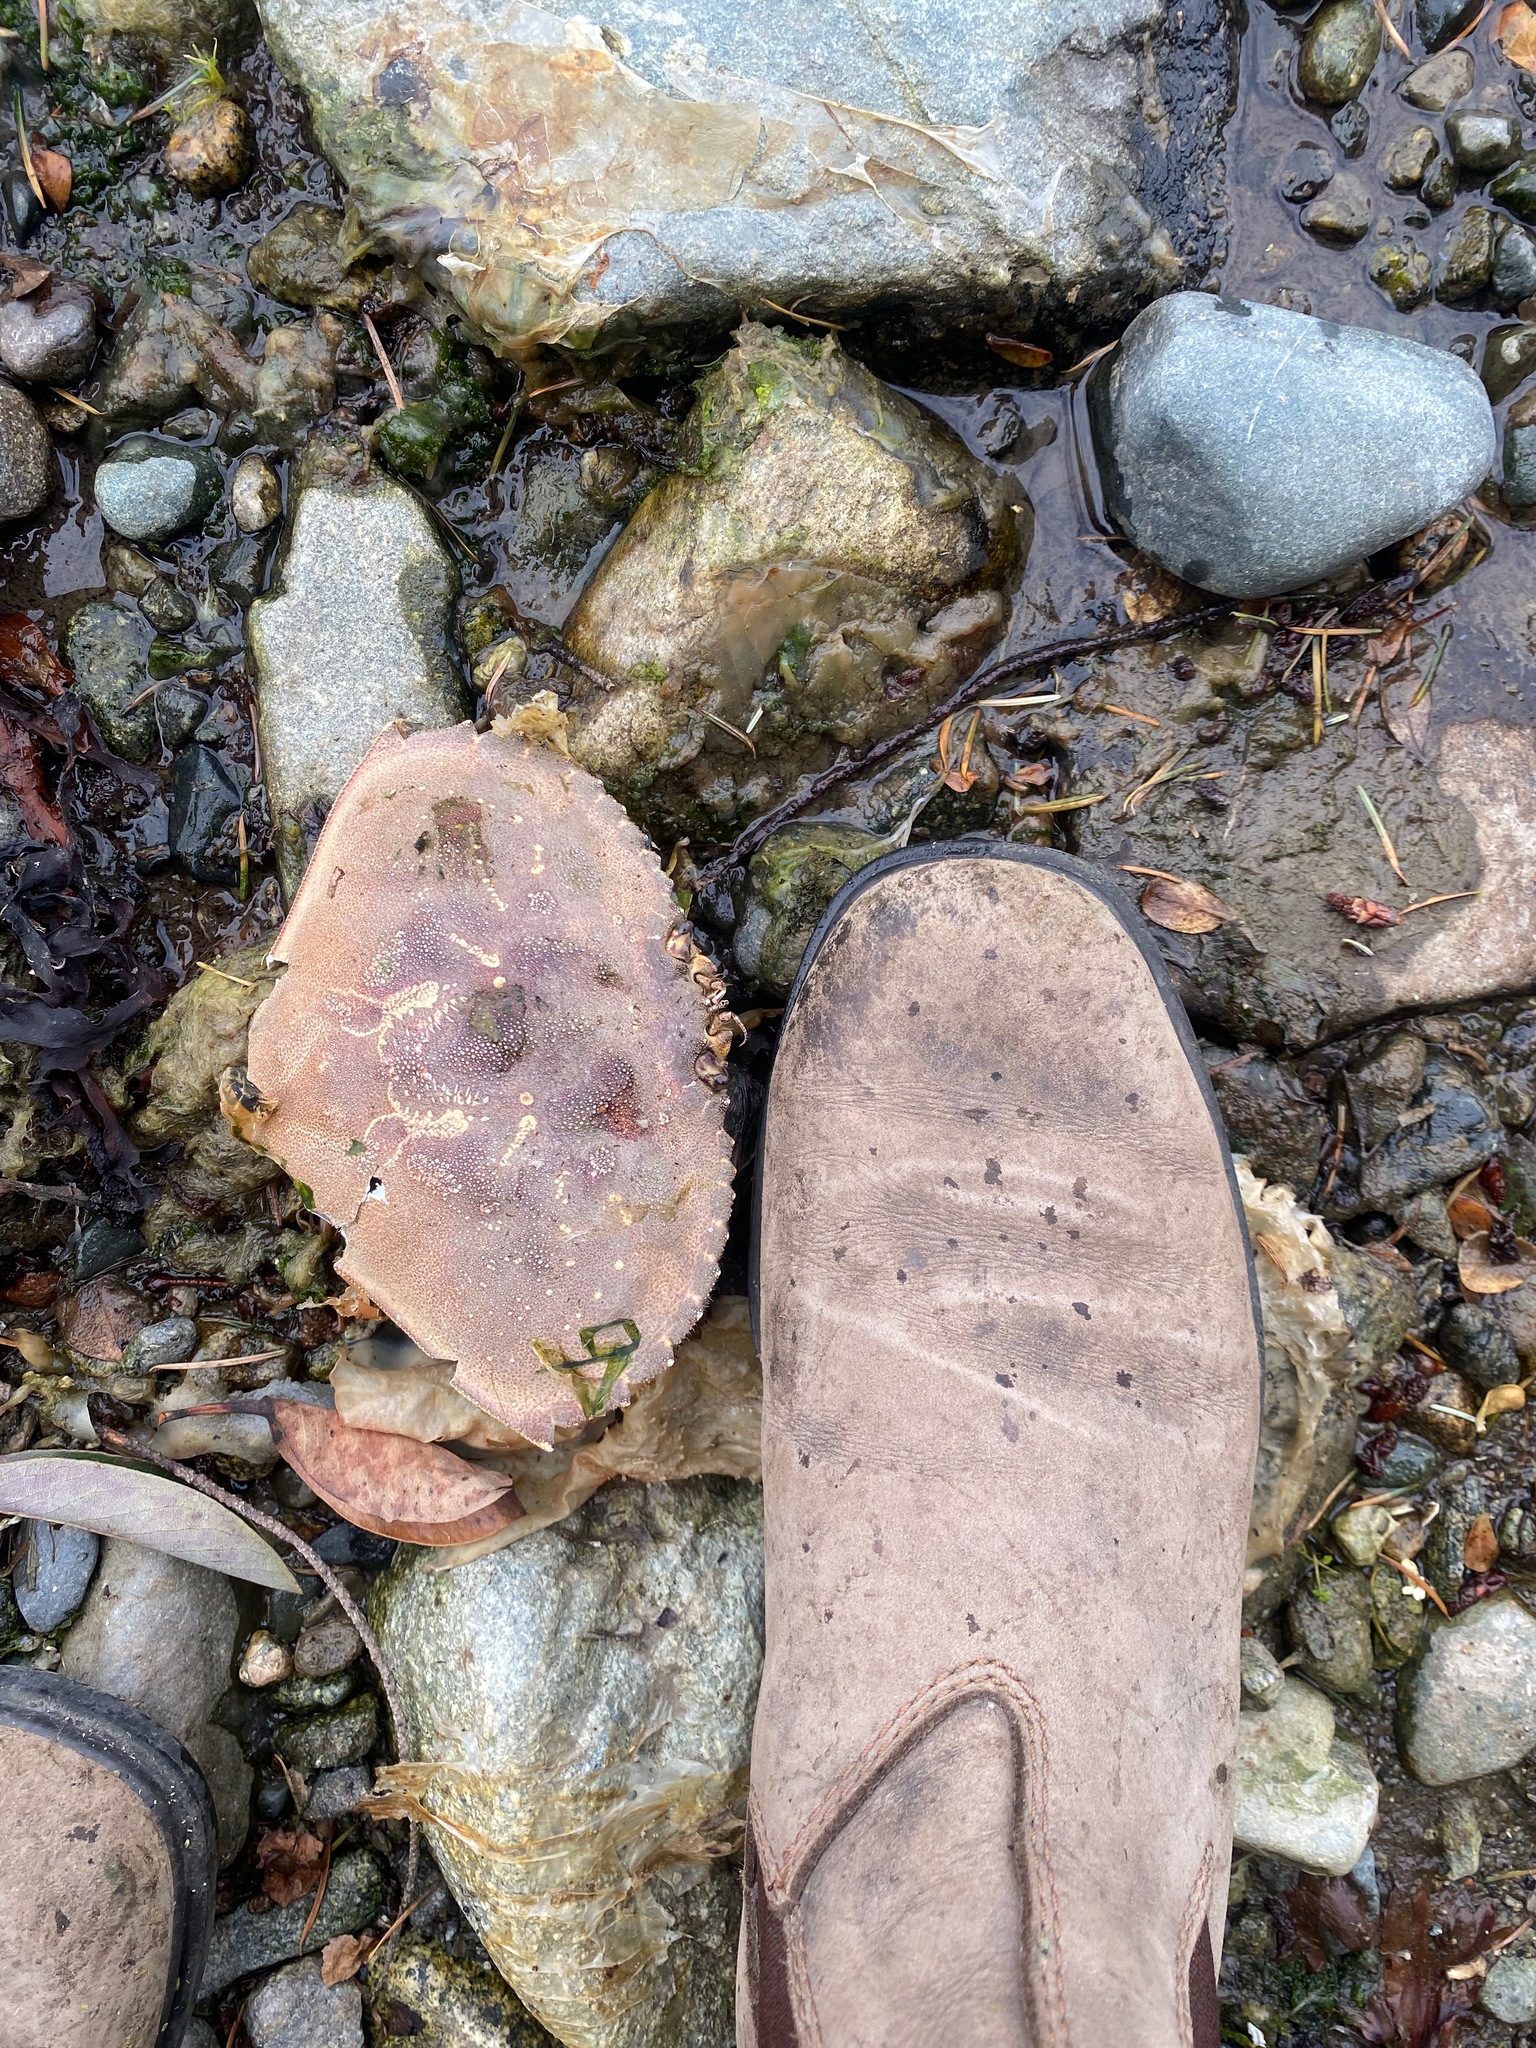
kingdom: Animalia
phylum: Arthropoda
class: Malacostraca
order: Decapoda
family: Cancridae
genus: Metacarcinus
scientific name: Metacarcinus magister
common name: Californian crab
